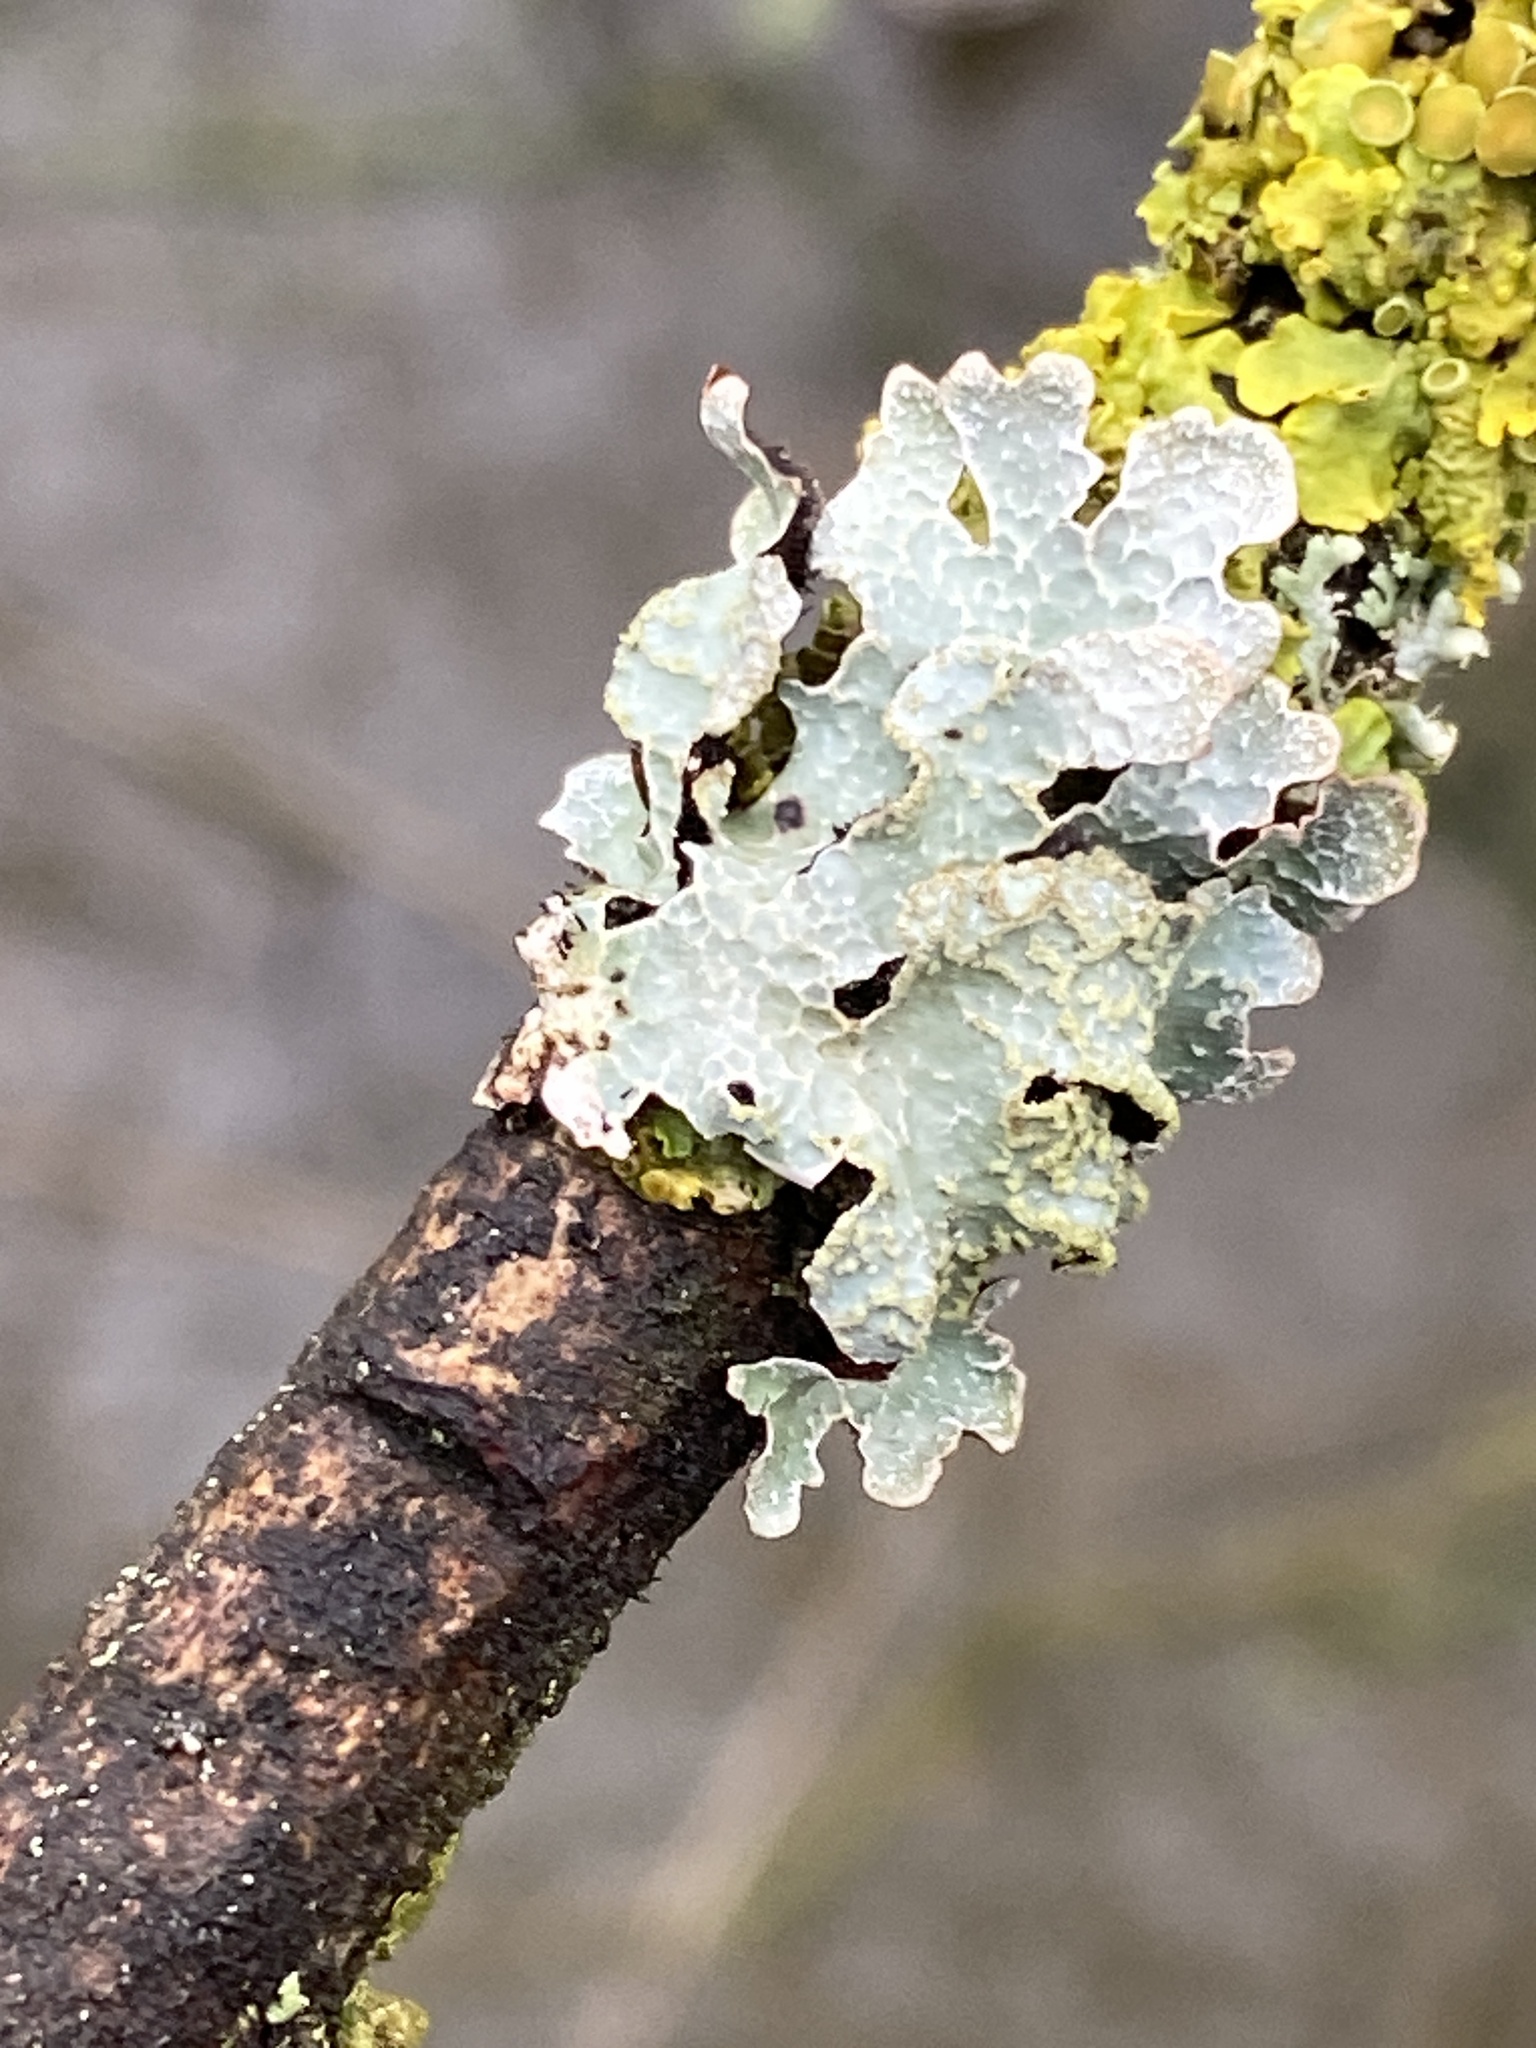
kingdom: Fungi
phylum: Ascomycota
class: Lecanoromycetes
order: Lecanorales
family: Parmeliaceae
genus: Parmelia
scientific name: Parmelia sulcata
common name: Netted shield lichen
